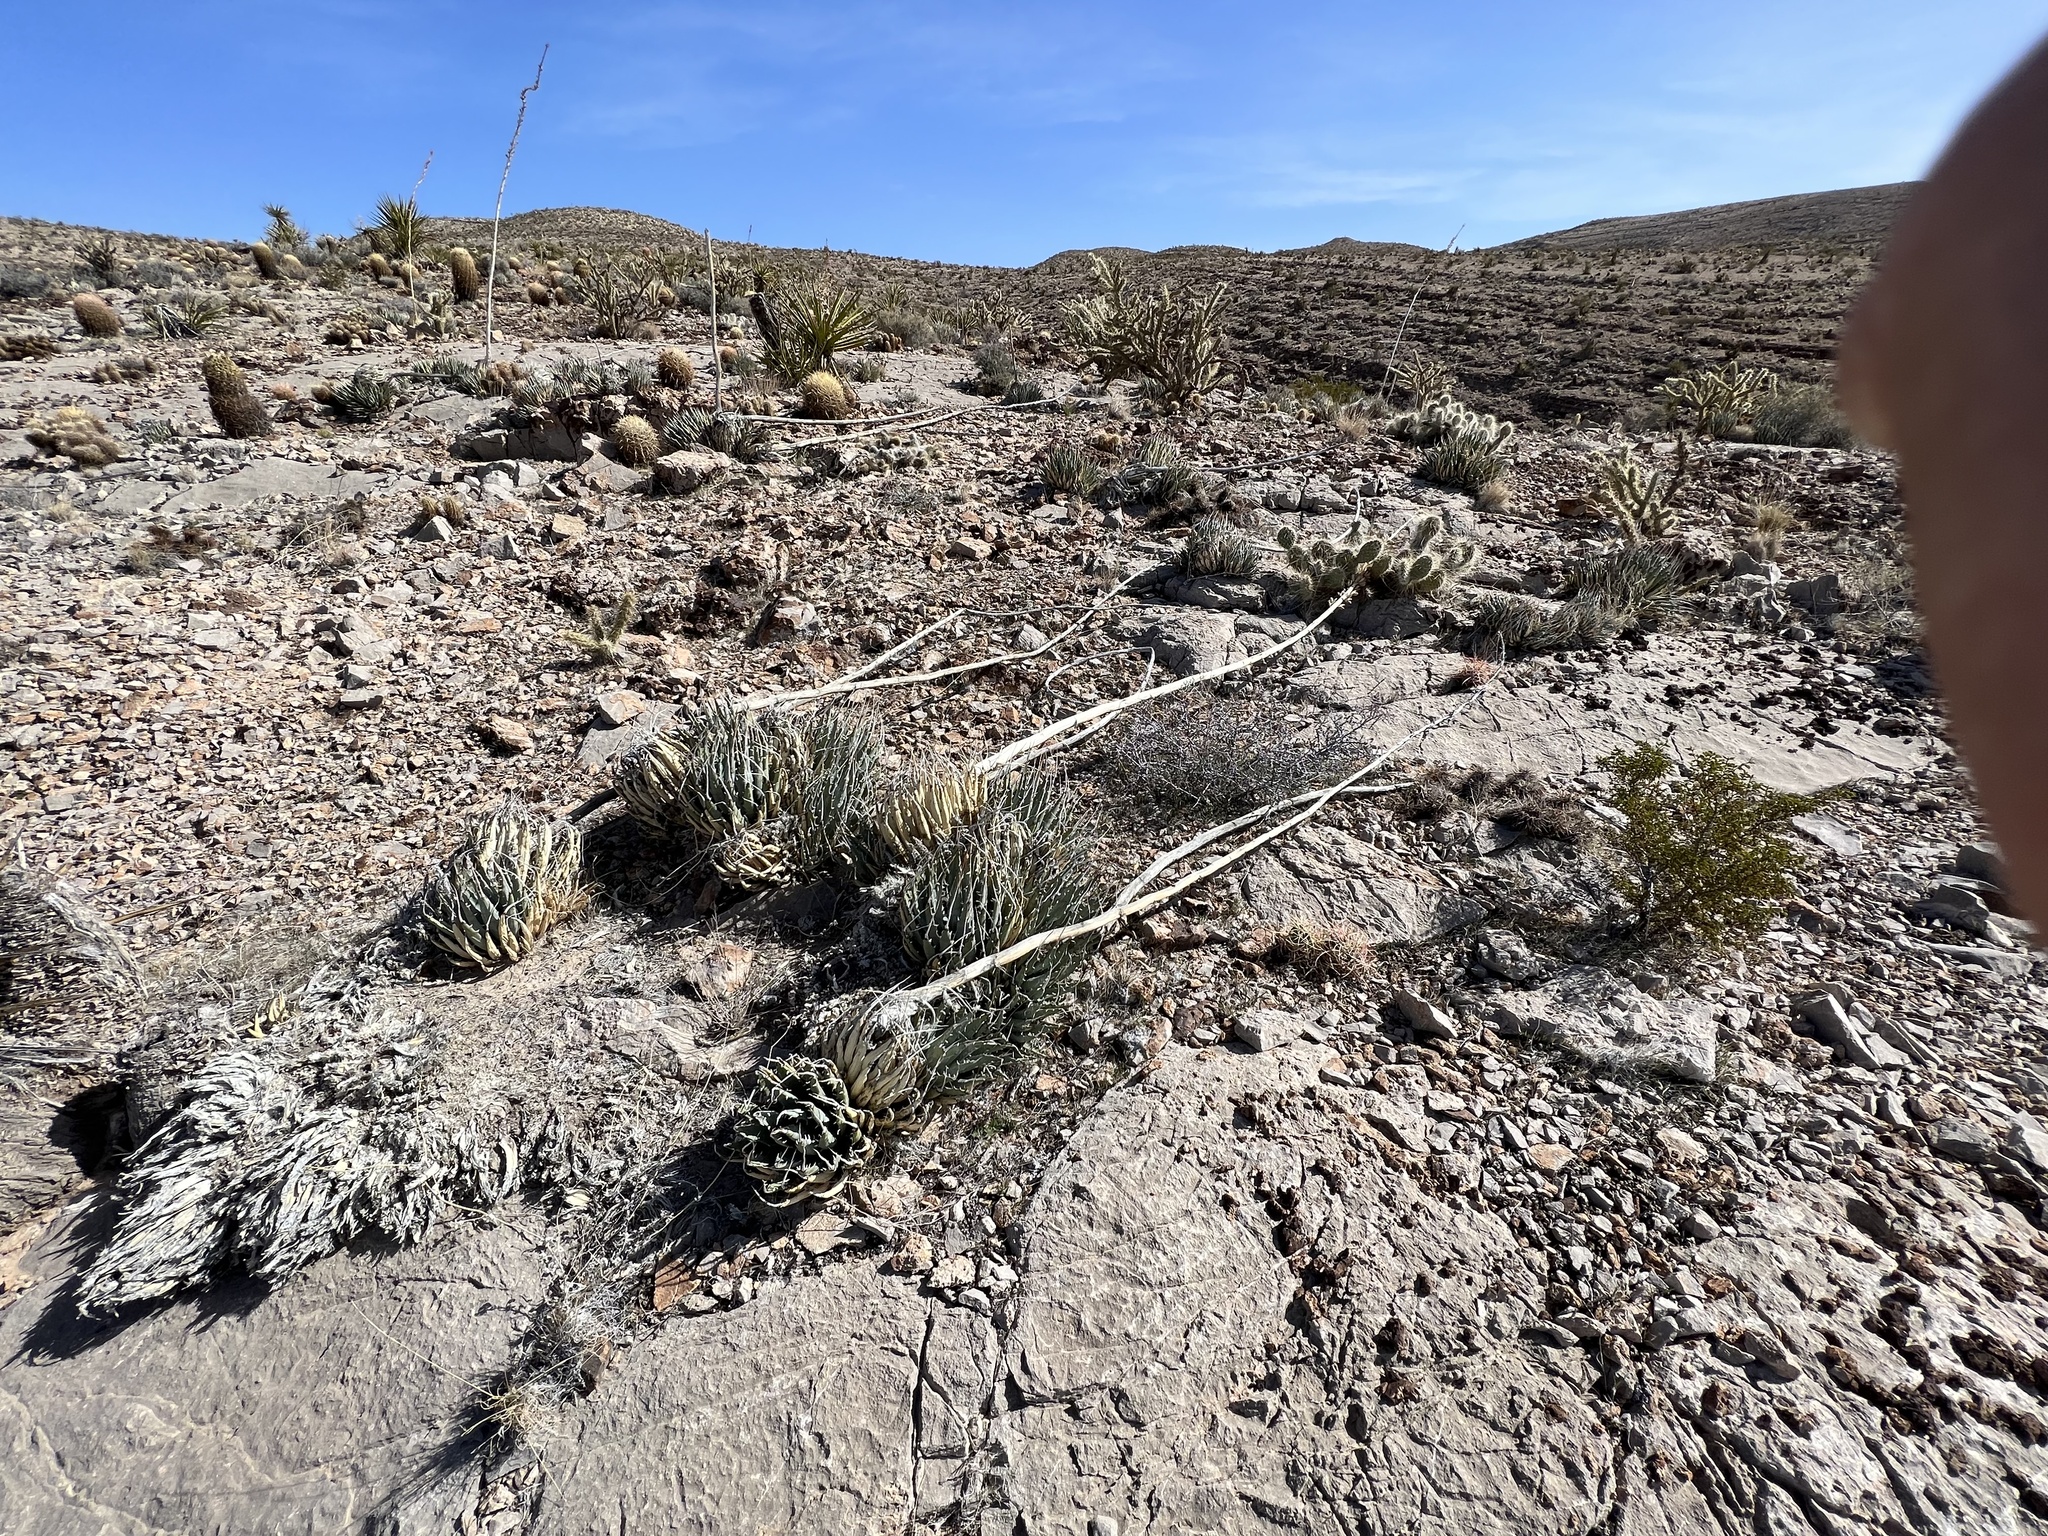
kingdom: Plantae
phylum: Tracheophyta
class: Liliopsida
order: Asparagales
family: Asparagaceae
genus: Agave
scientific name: Agave utahensis
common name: Utah agave
